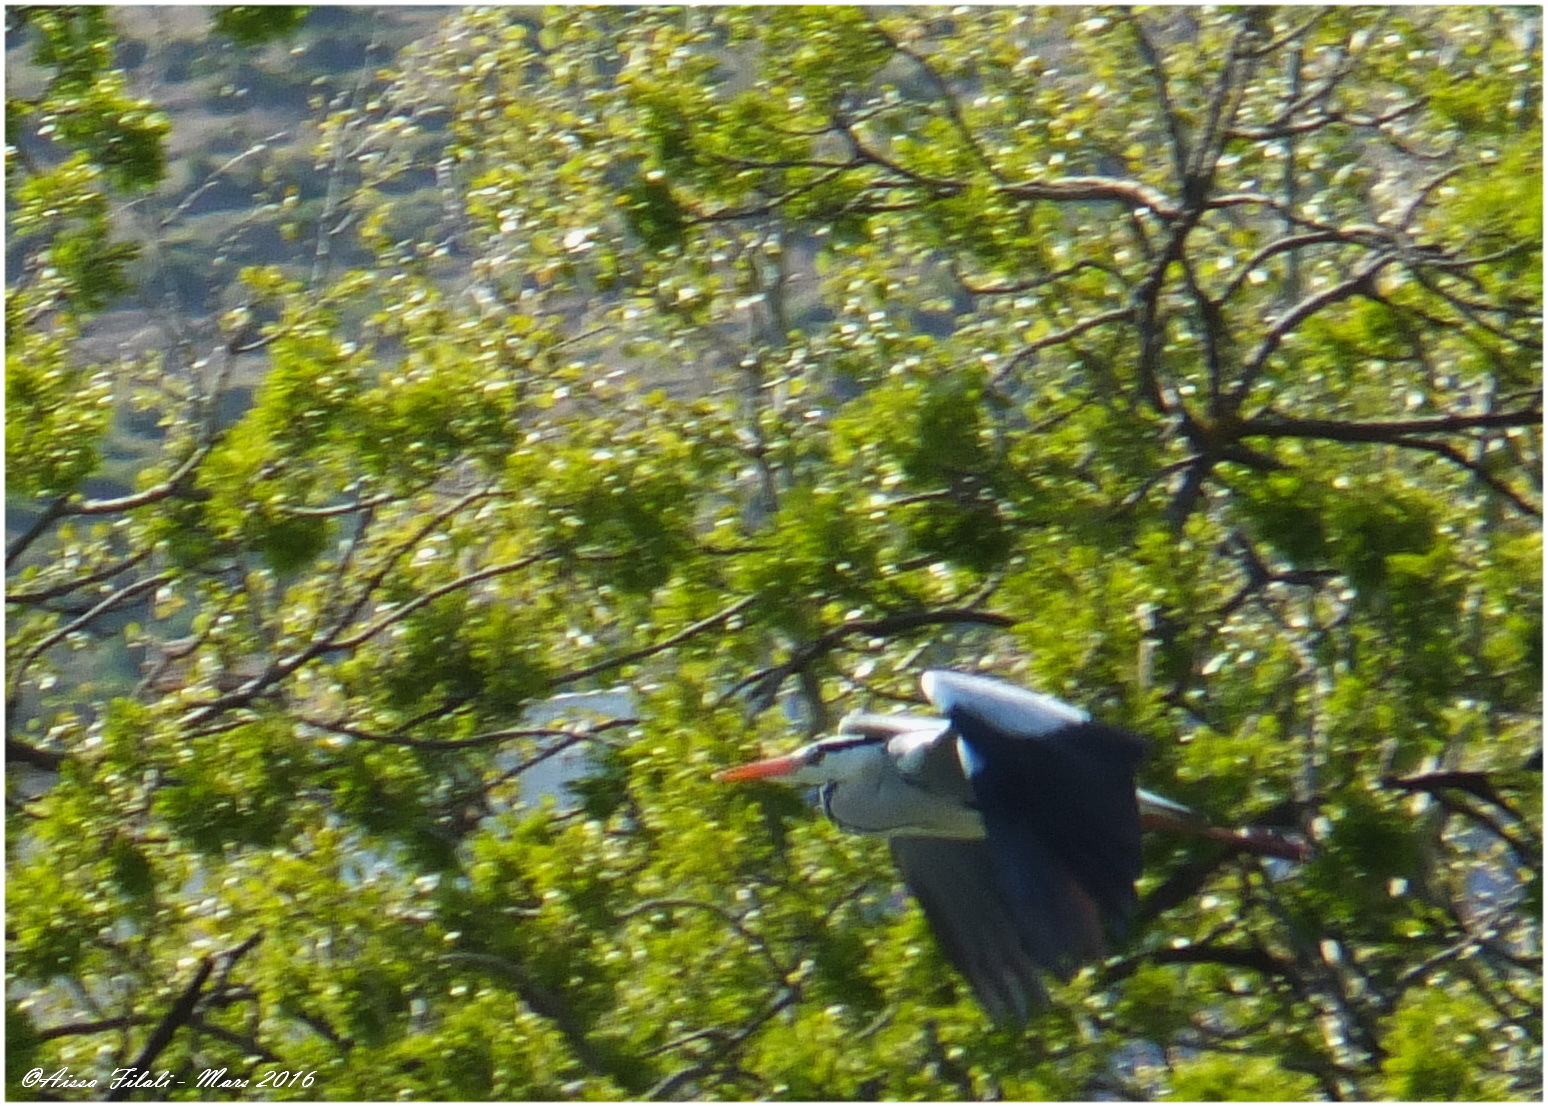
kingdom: Animalia
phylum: Chordata
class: Aves
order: Pelecaniformes
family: Ardeidae
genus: Ardea
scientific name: Ardea cinerea
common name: Grey heron
